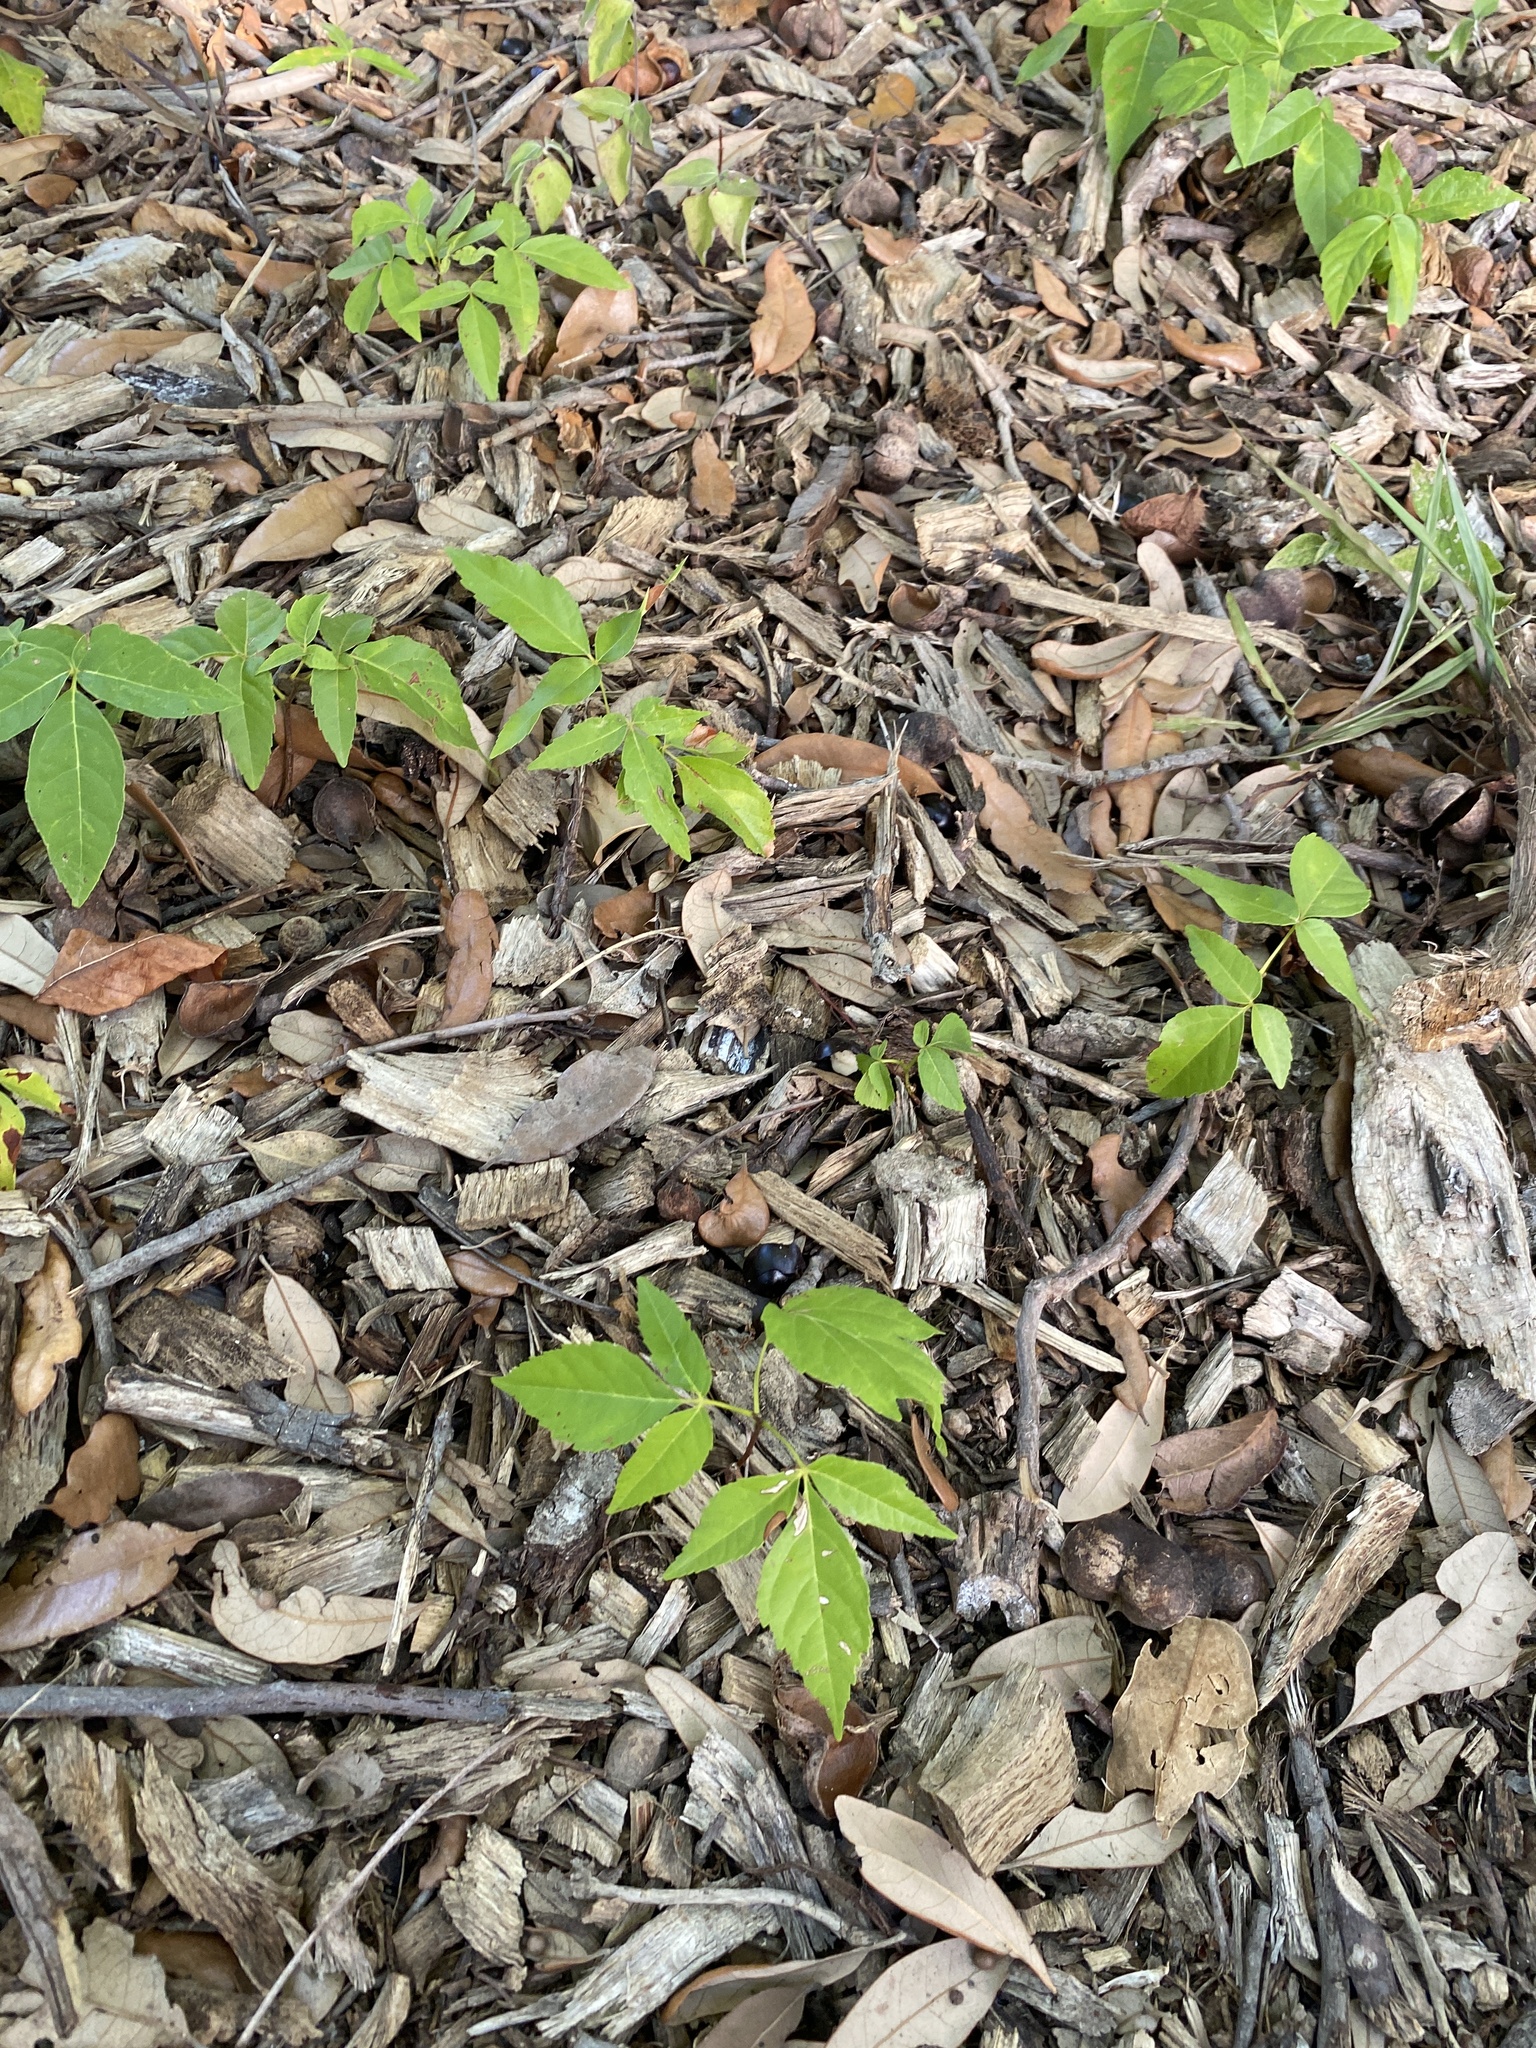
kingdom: Plantae
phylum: Tracheophyta
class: Magnoliopsida
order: Sapindales
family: Sapindaceae
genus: Ungnadia
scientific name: Ungnadia speciosa
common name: Texas-buckeye
